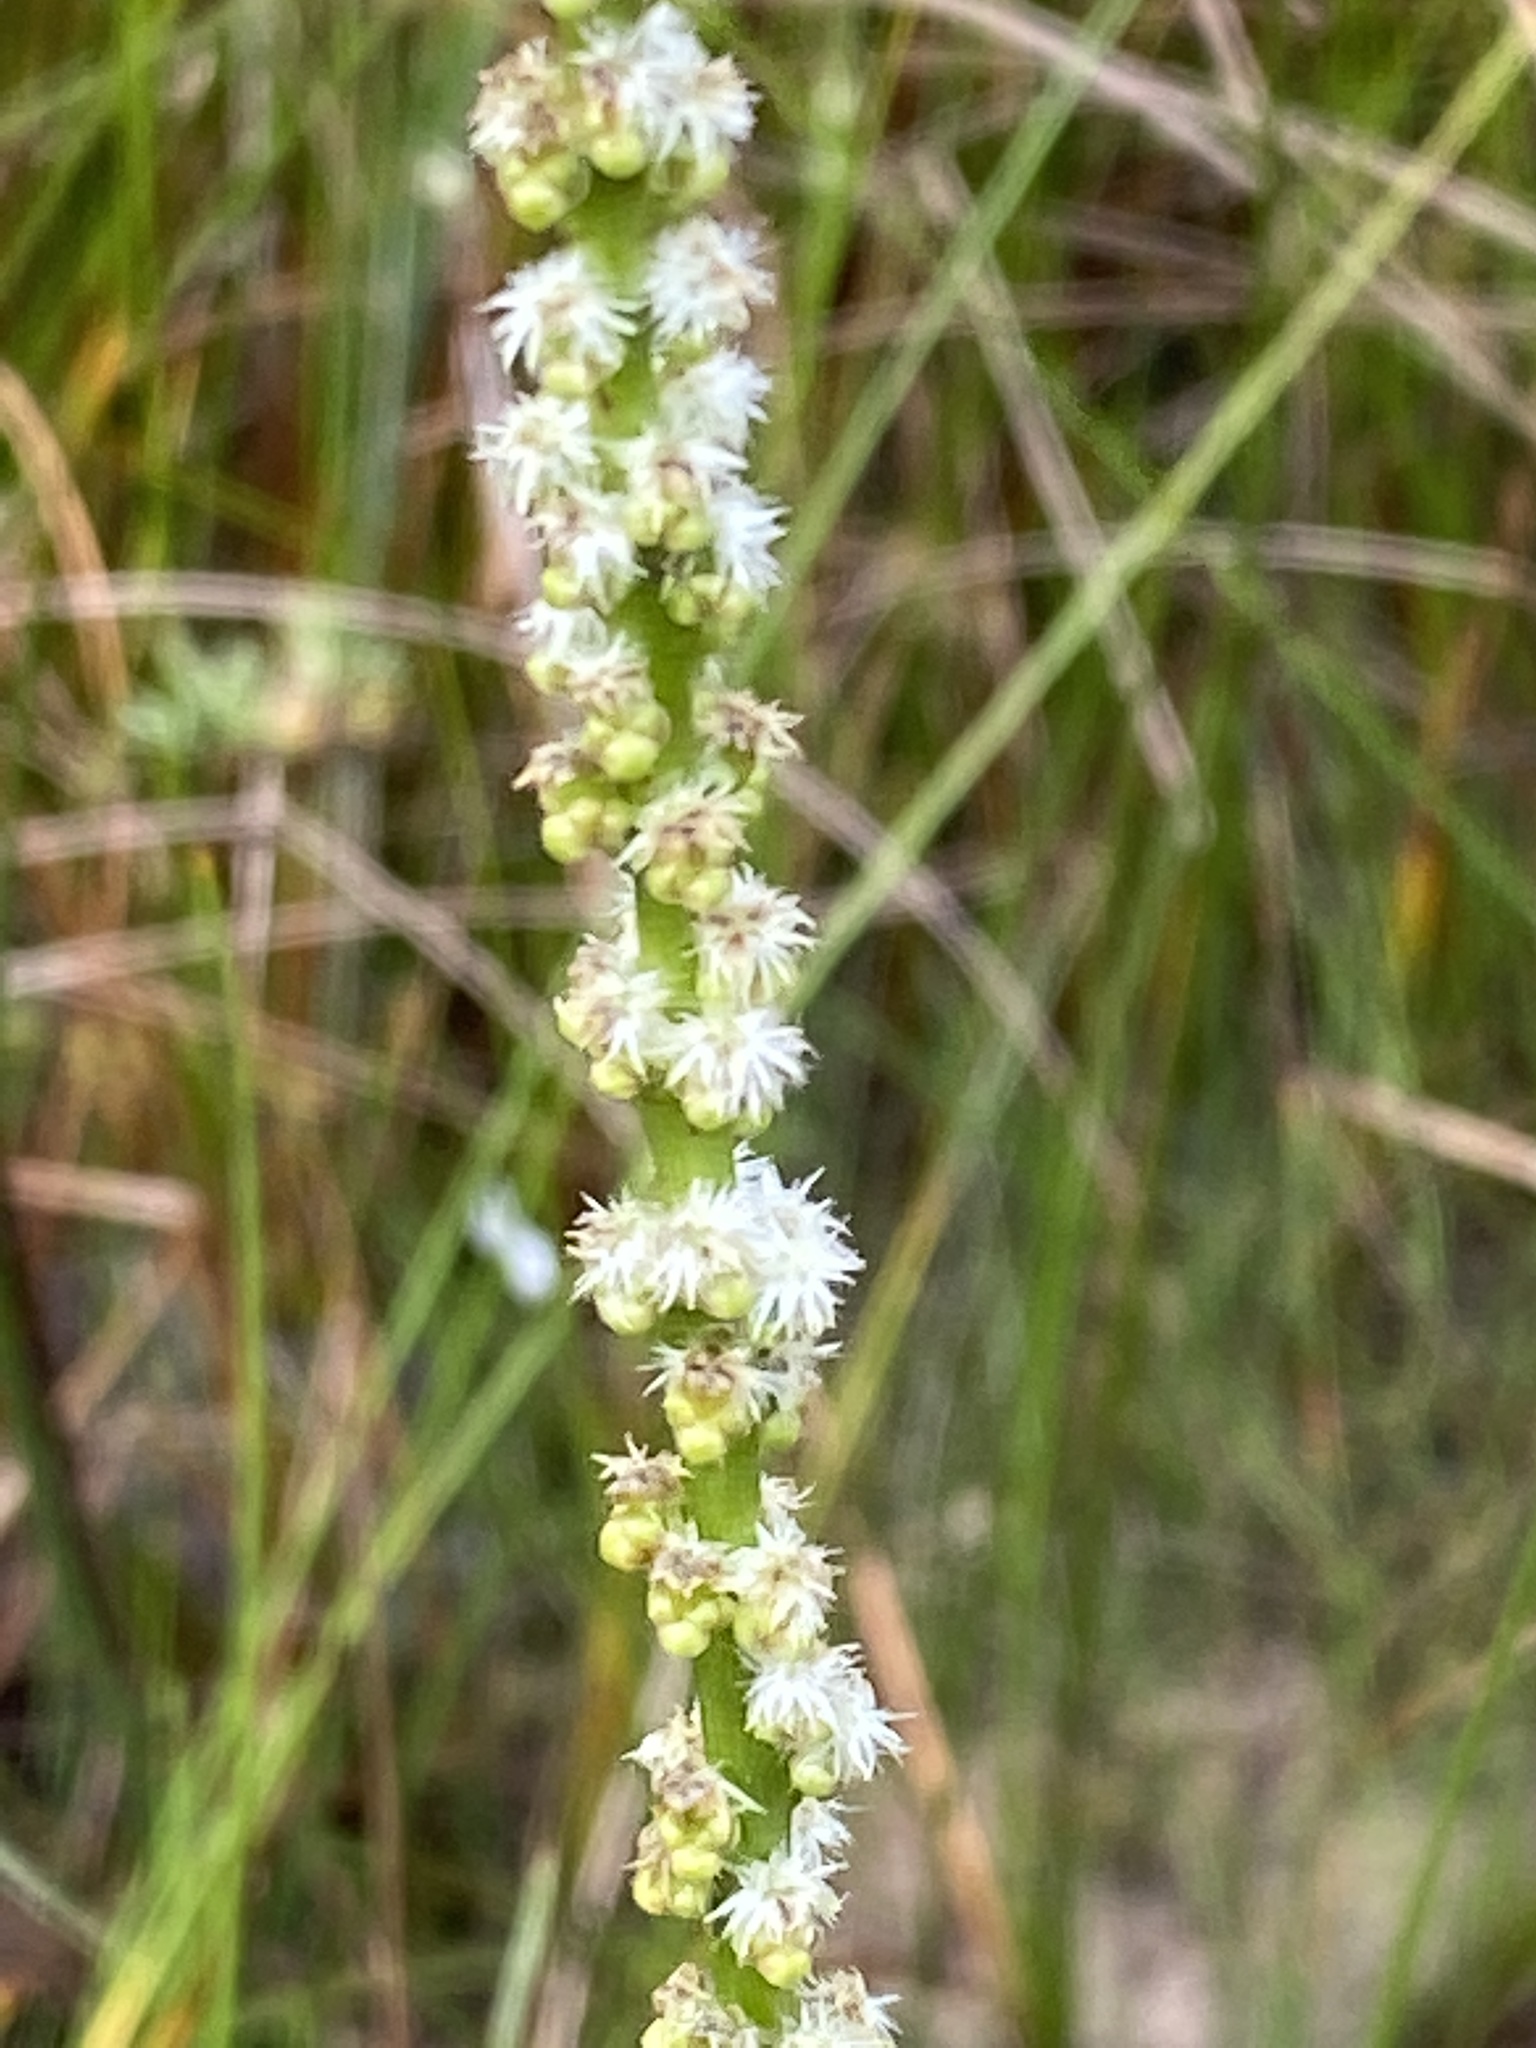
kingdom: Plantae
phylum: Tracheophyta
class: Liliopsida
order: Alismatales
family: Juncaginaceae
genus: Triglochin
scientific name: Triglochin maritima
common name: Sea arrowgrass
